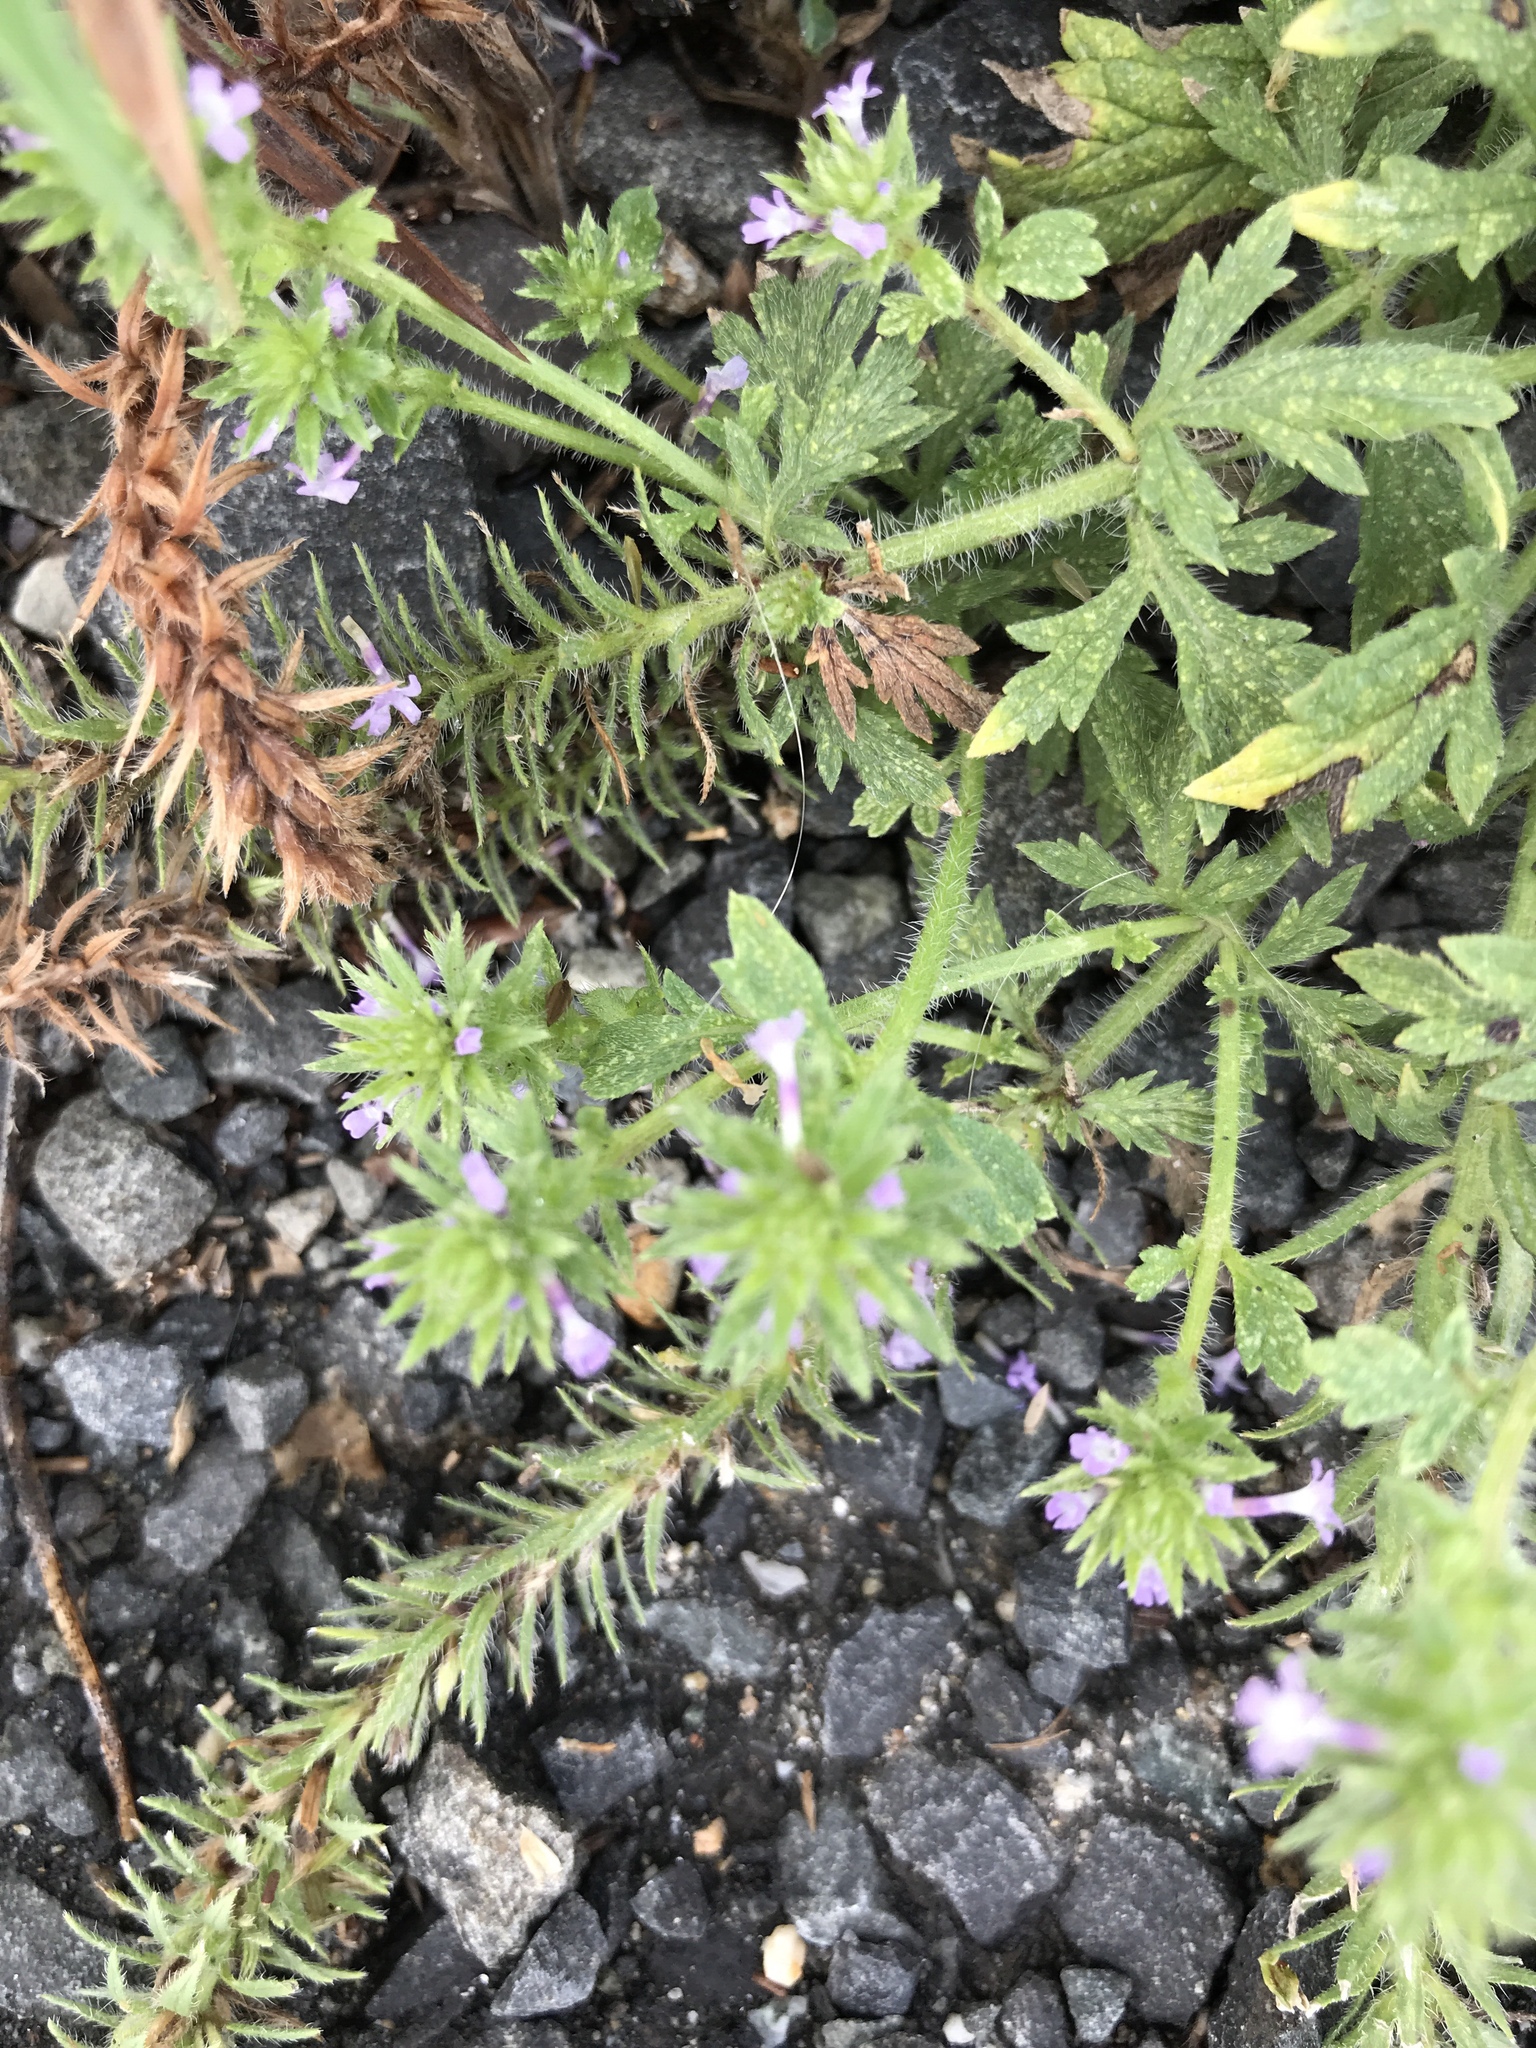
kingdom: Plantae
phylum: Tracheophyta
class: Magnoliopsida
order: Lamiales
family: Verbenaceae
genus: Verbena
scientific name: Verbena bracteata
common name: Bracted vervain
